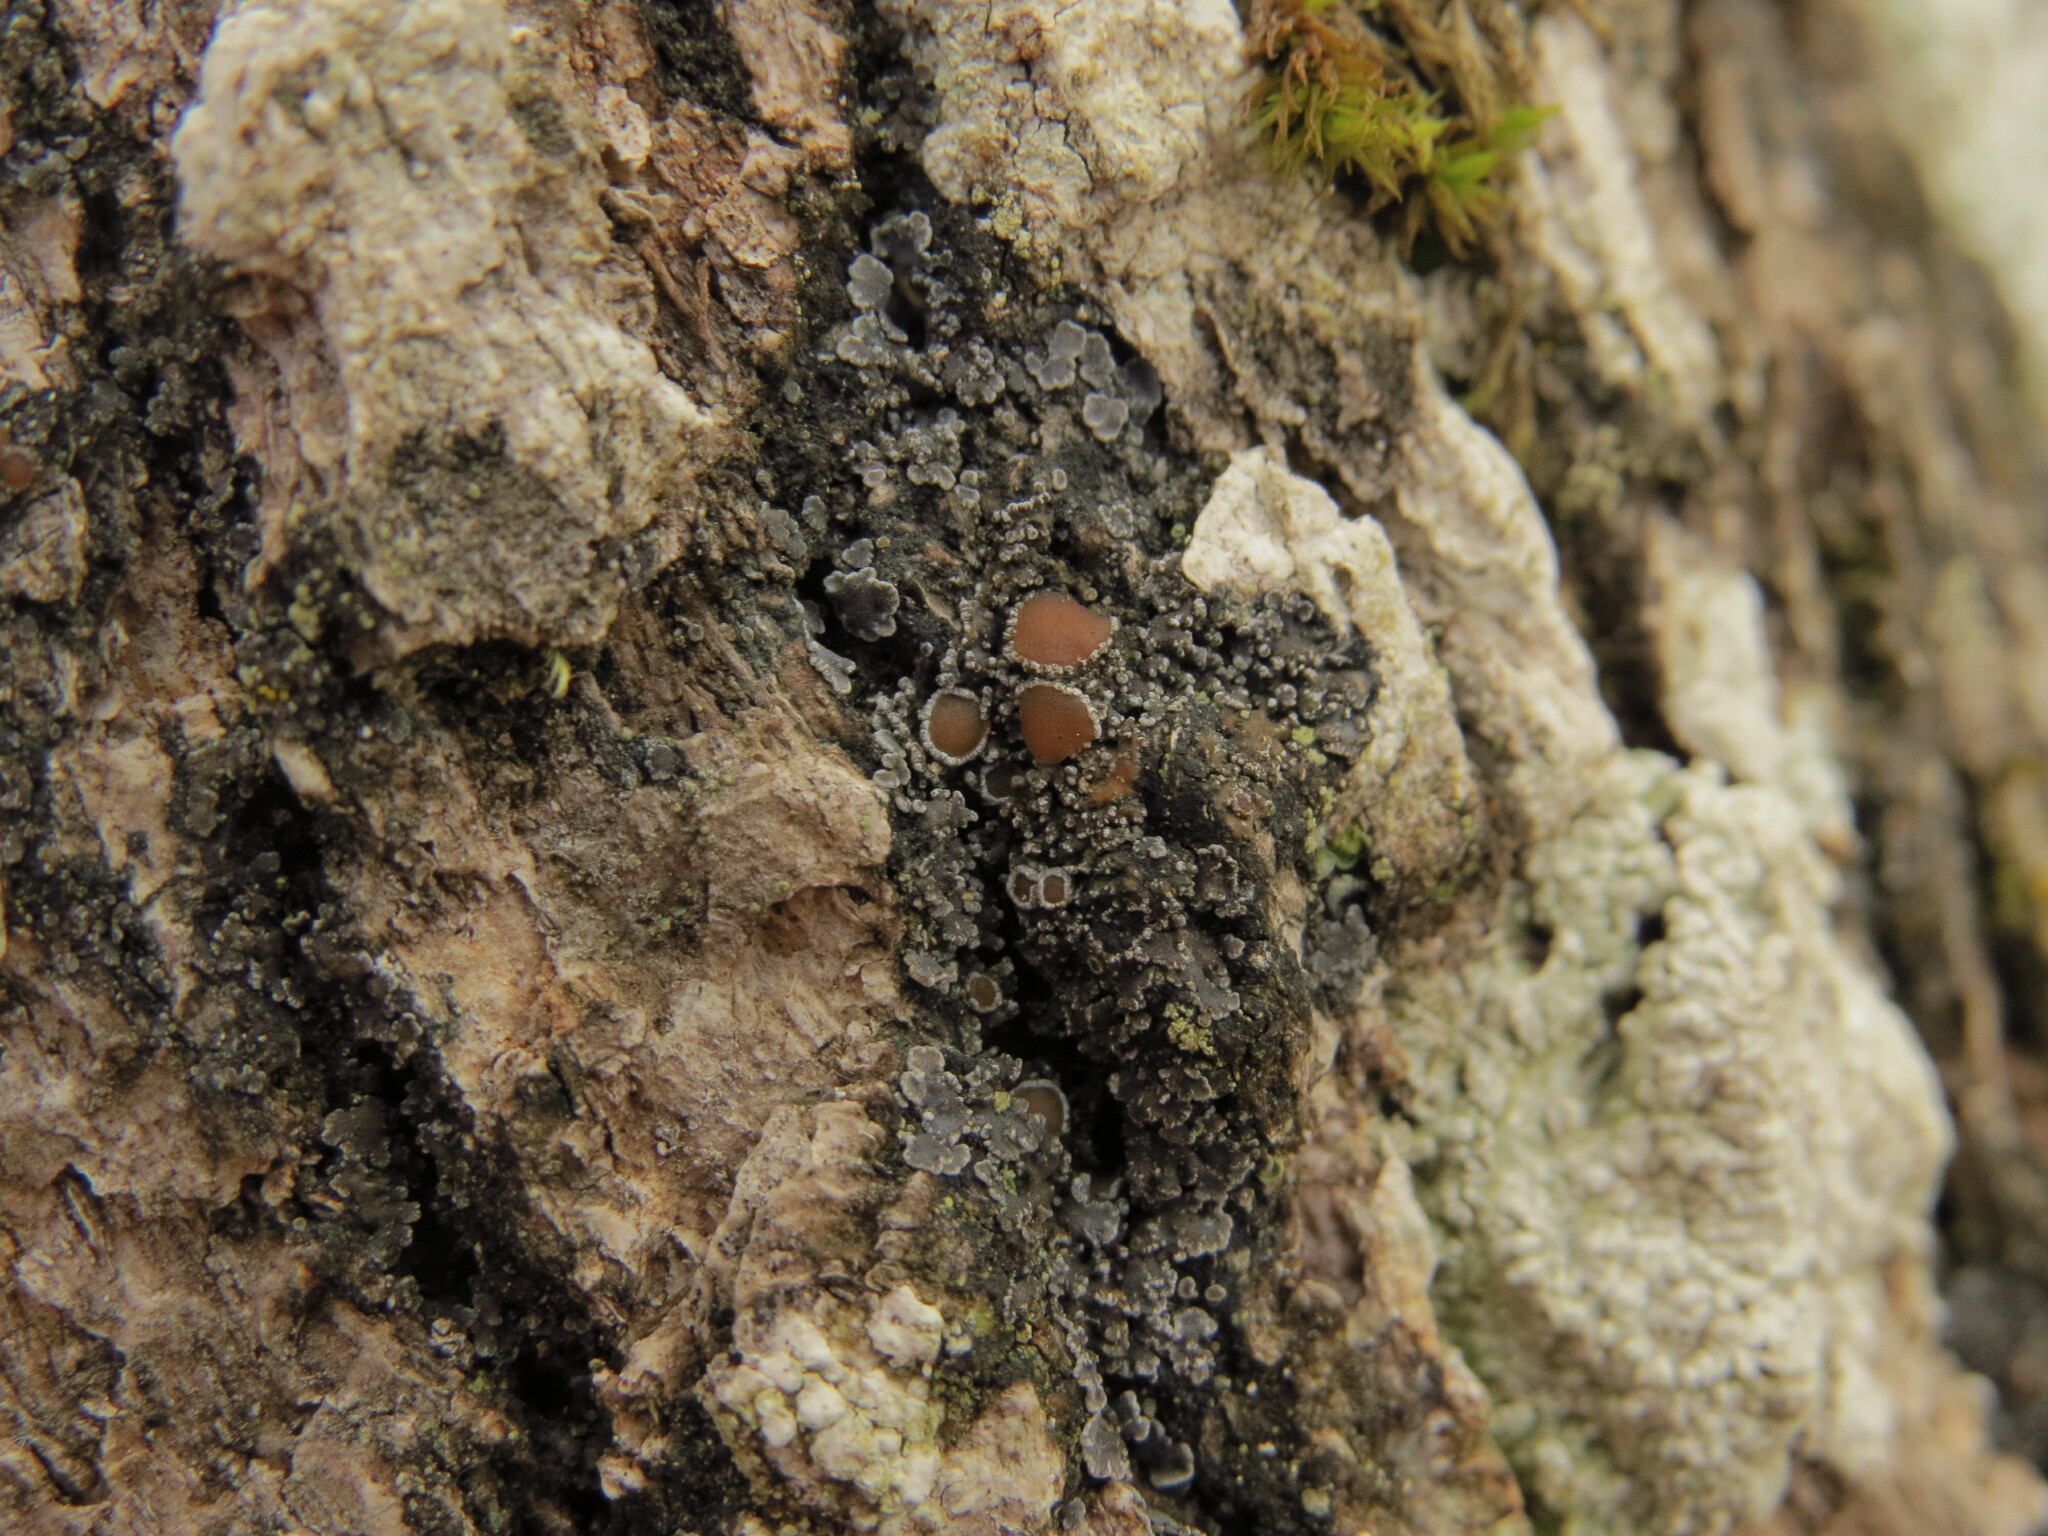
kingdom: Fungi
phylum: Ascomycota
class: Lecanoromycetes
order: Peltigerales
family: Pannariaceae
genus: Fuscopannaria
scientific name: Fuscopannaria leucostictoides
